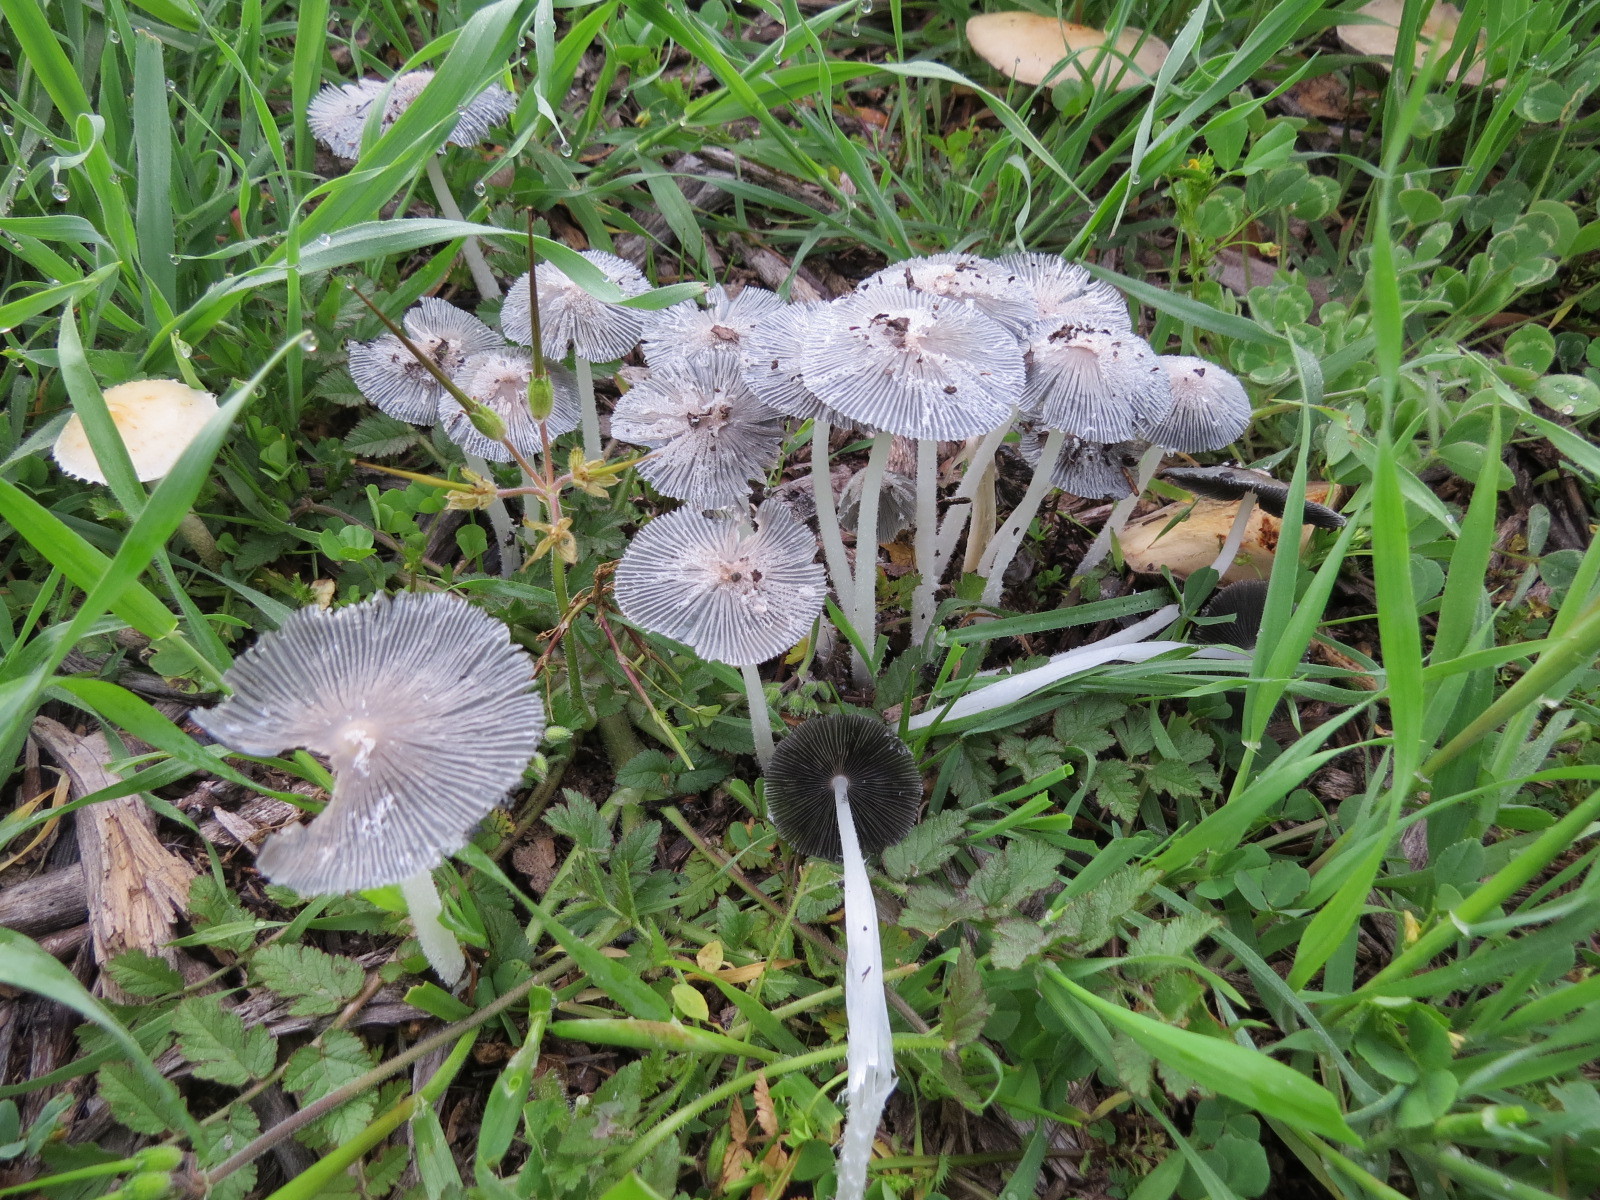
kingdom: Fungi
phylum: Basidiomycota
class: Agaricomycetes
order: Agaricales
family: Psathyrellaceae
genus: Coprinopsis
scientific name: Coprinopsis lagopus
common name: Hare'sfoot inkcap
